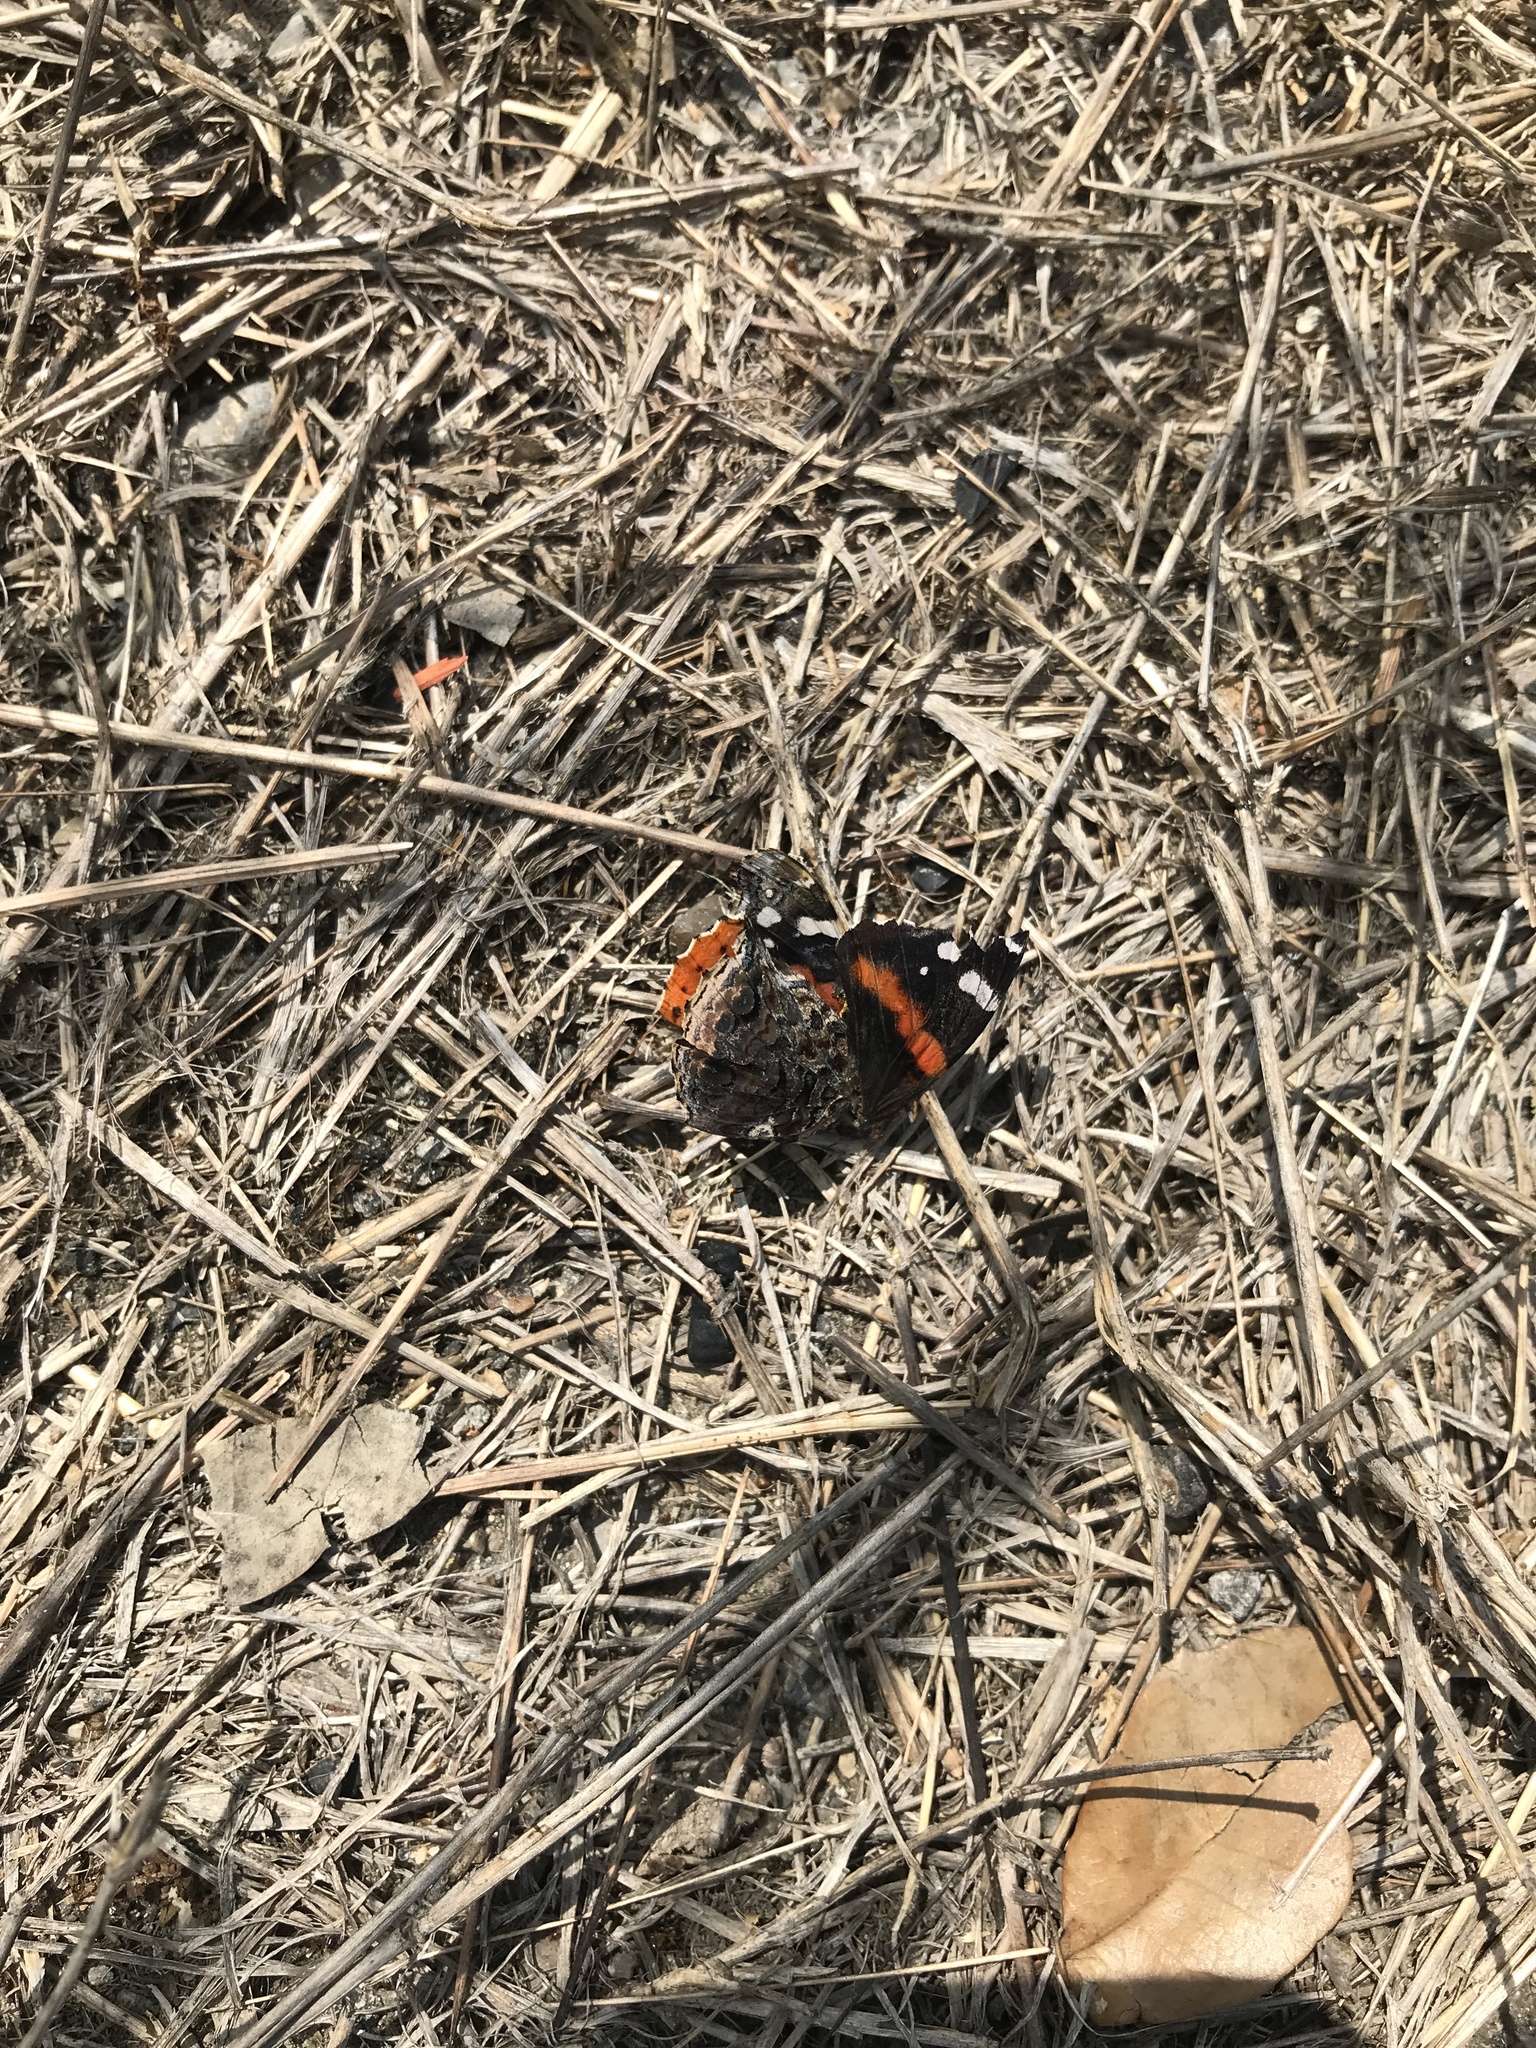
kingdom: Animalia
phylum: Arthropoda
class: Insecta
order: Lepidoptera
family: Nymphalidae
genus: Vanessa
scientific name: Vanessa atalanta
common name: Red admiral
